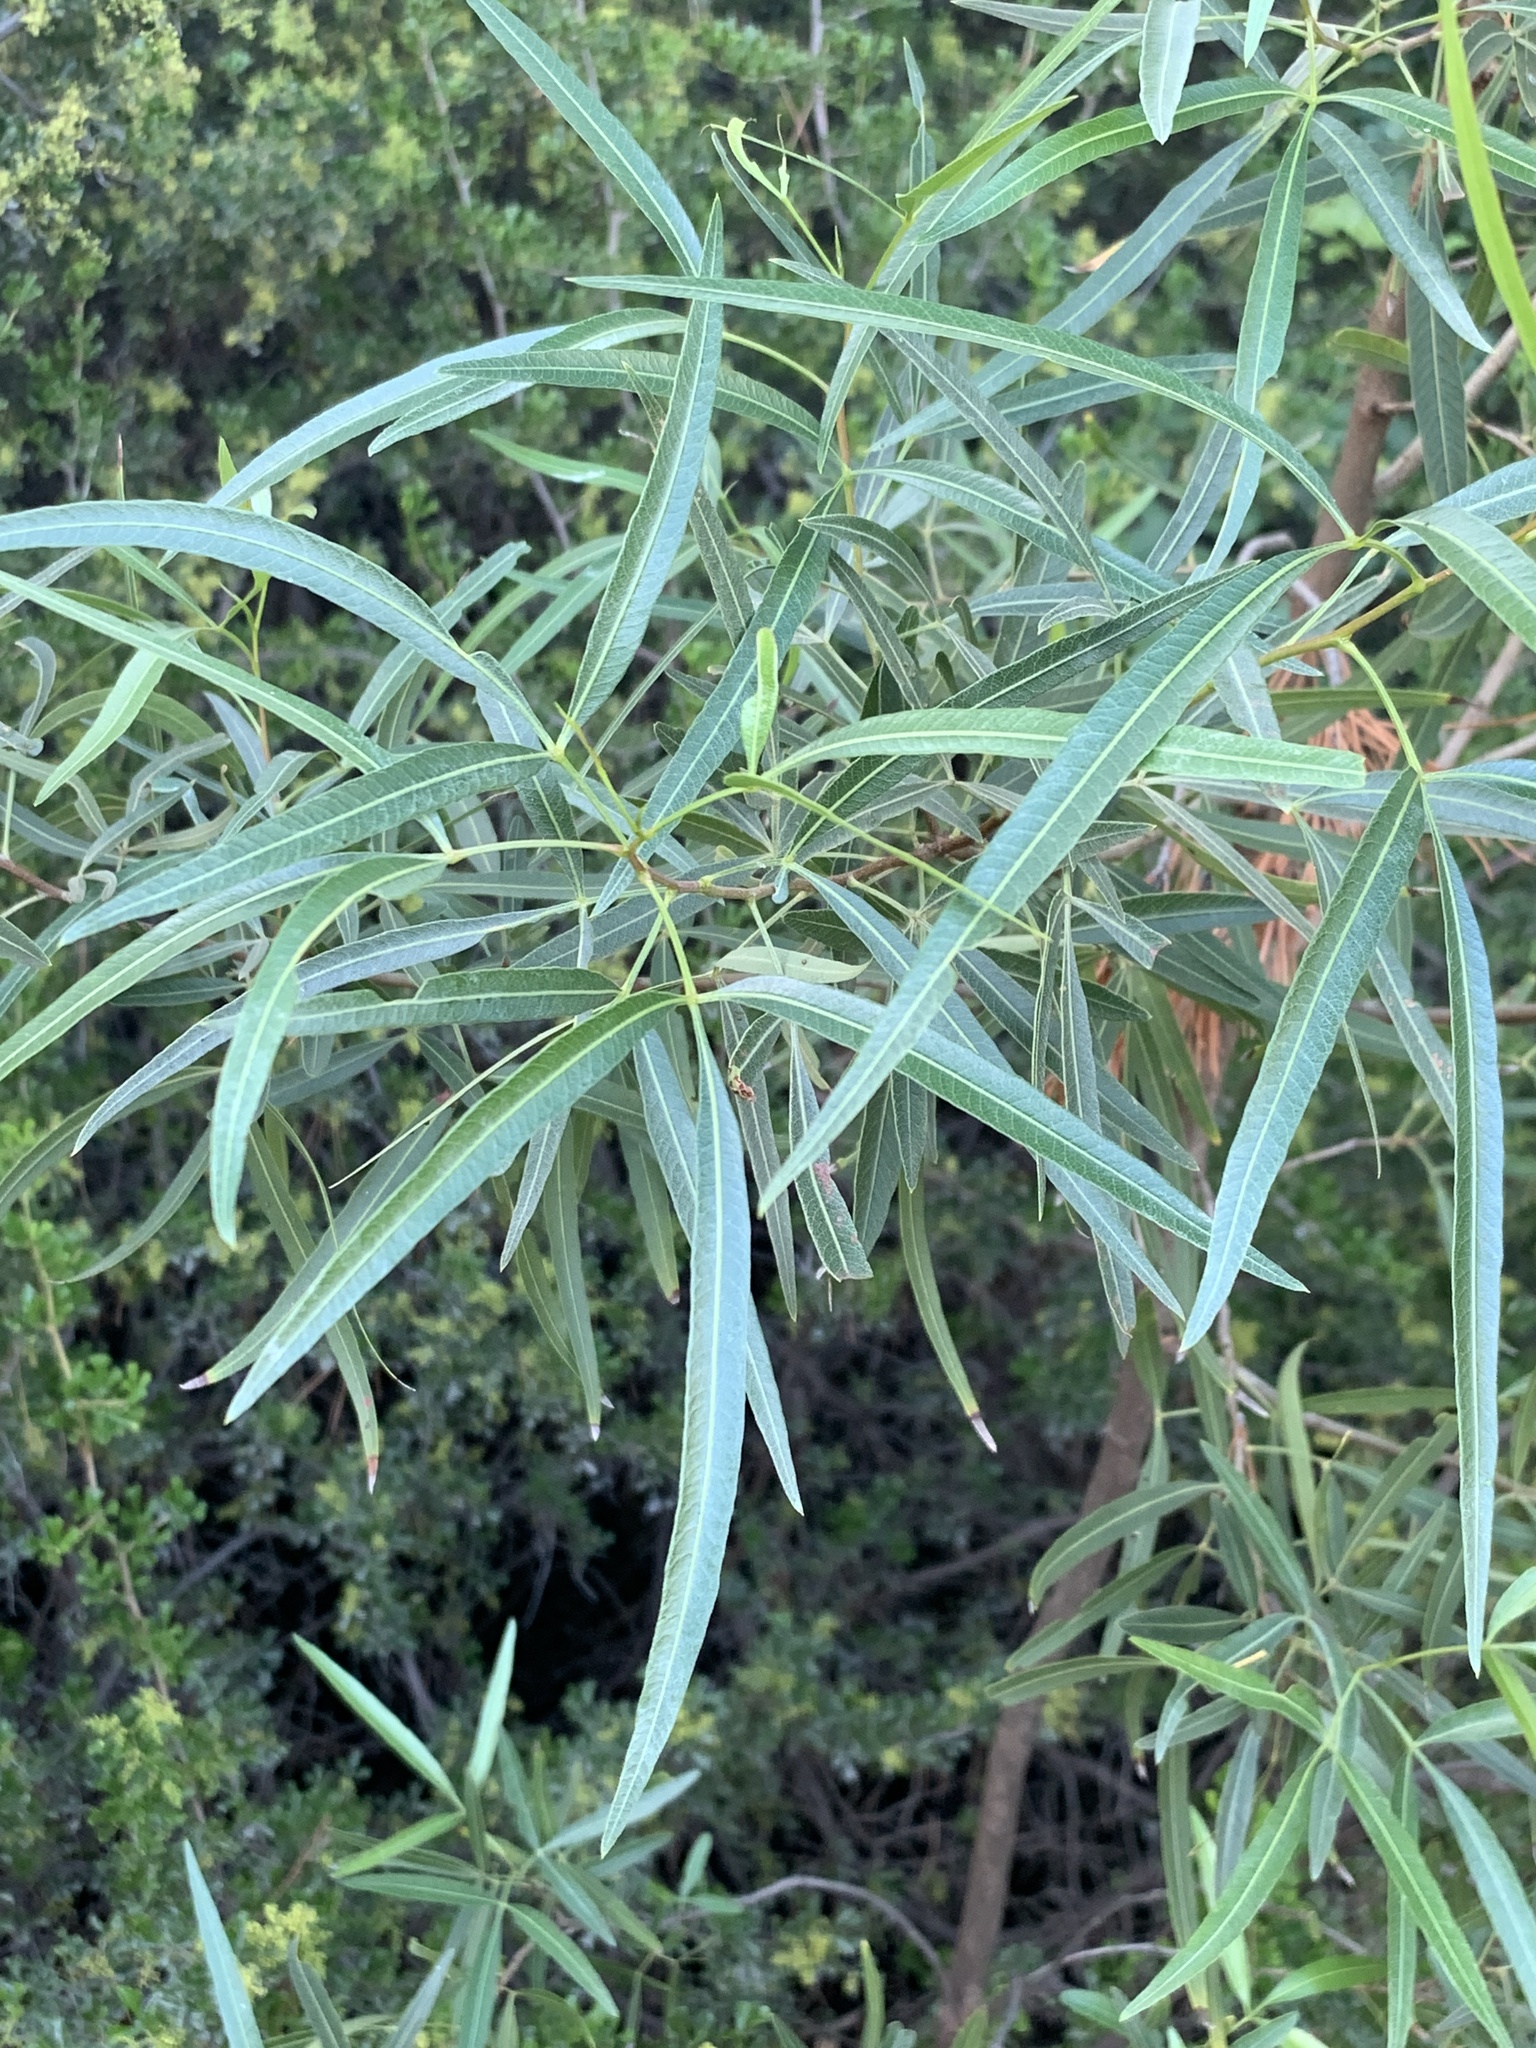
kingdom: Plantae
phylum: Tracheophyta
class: Magnoliopsida
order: Sapindales
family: Anacardiaceae
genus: Searsia
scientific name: Searsia lancea
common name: Cashew
